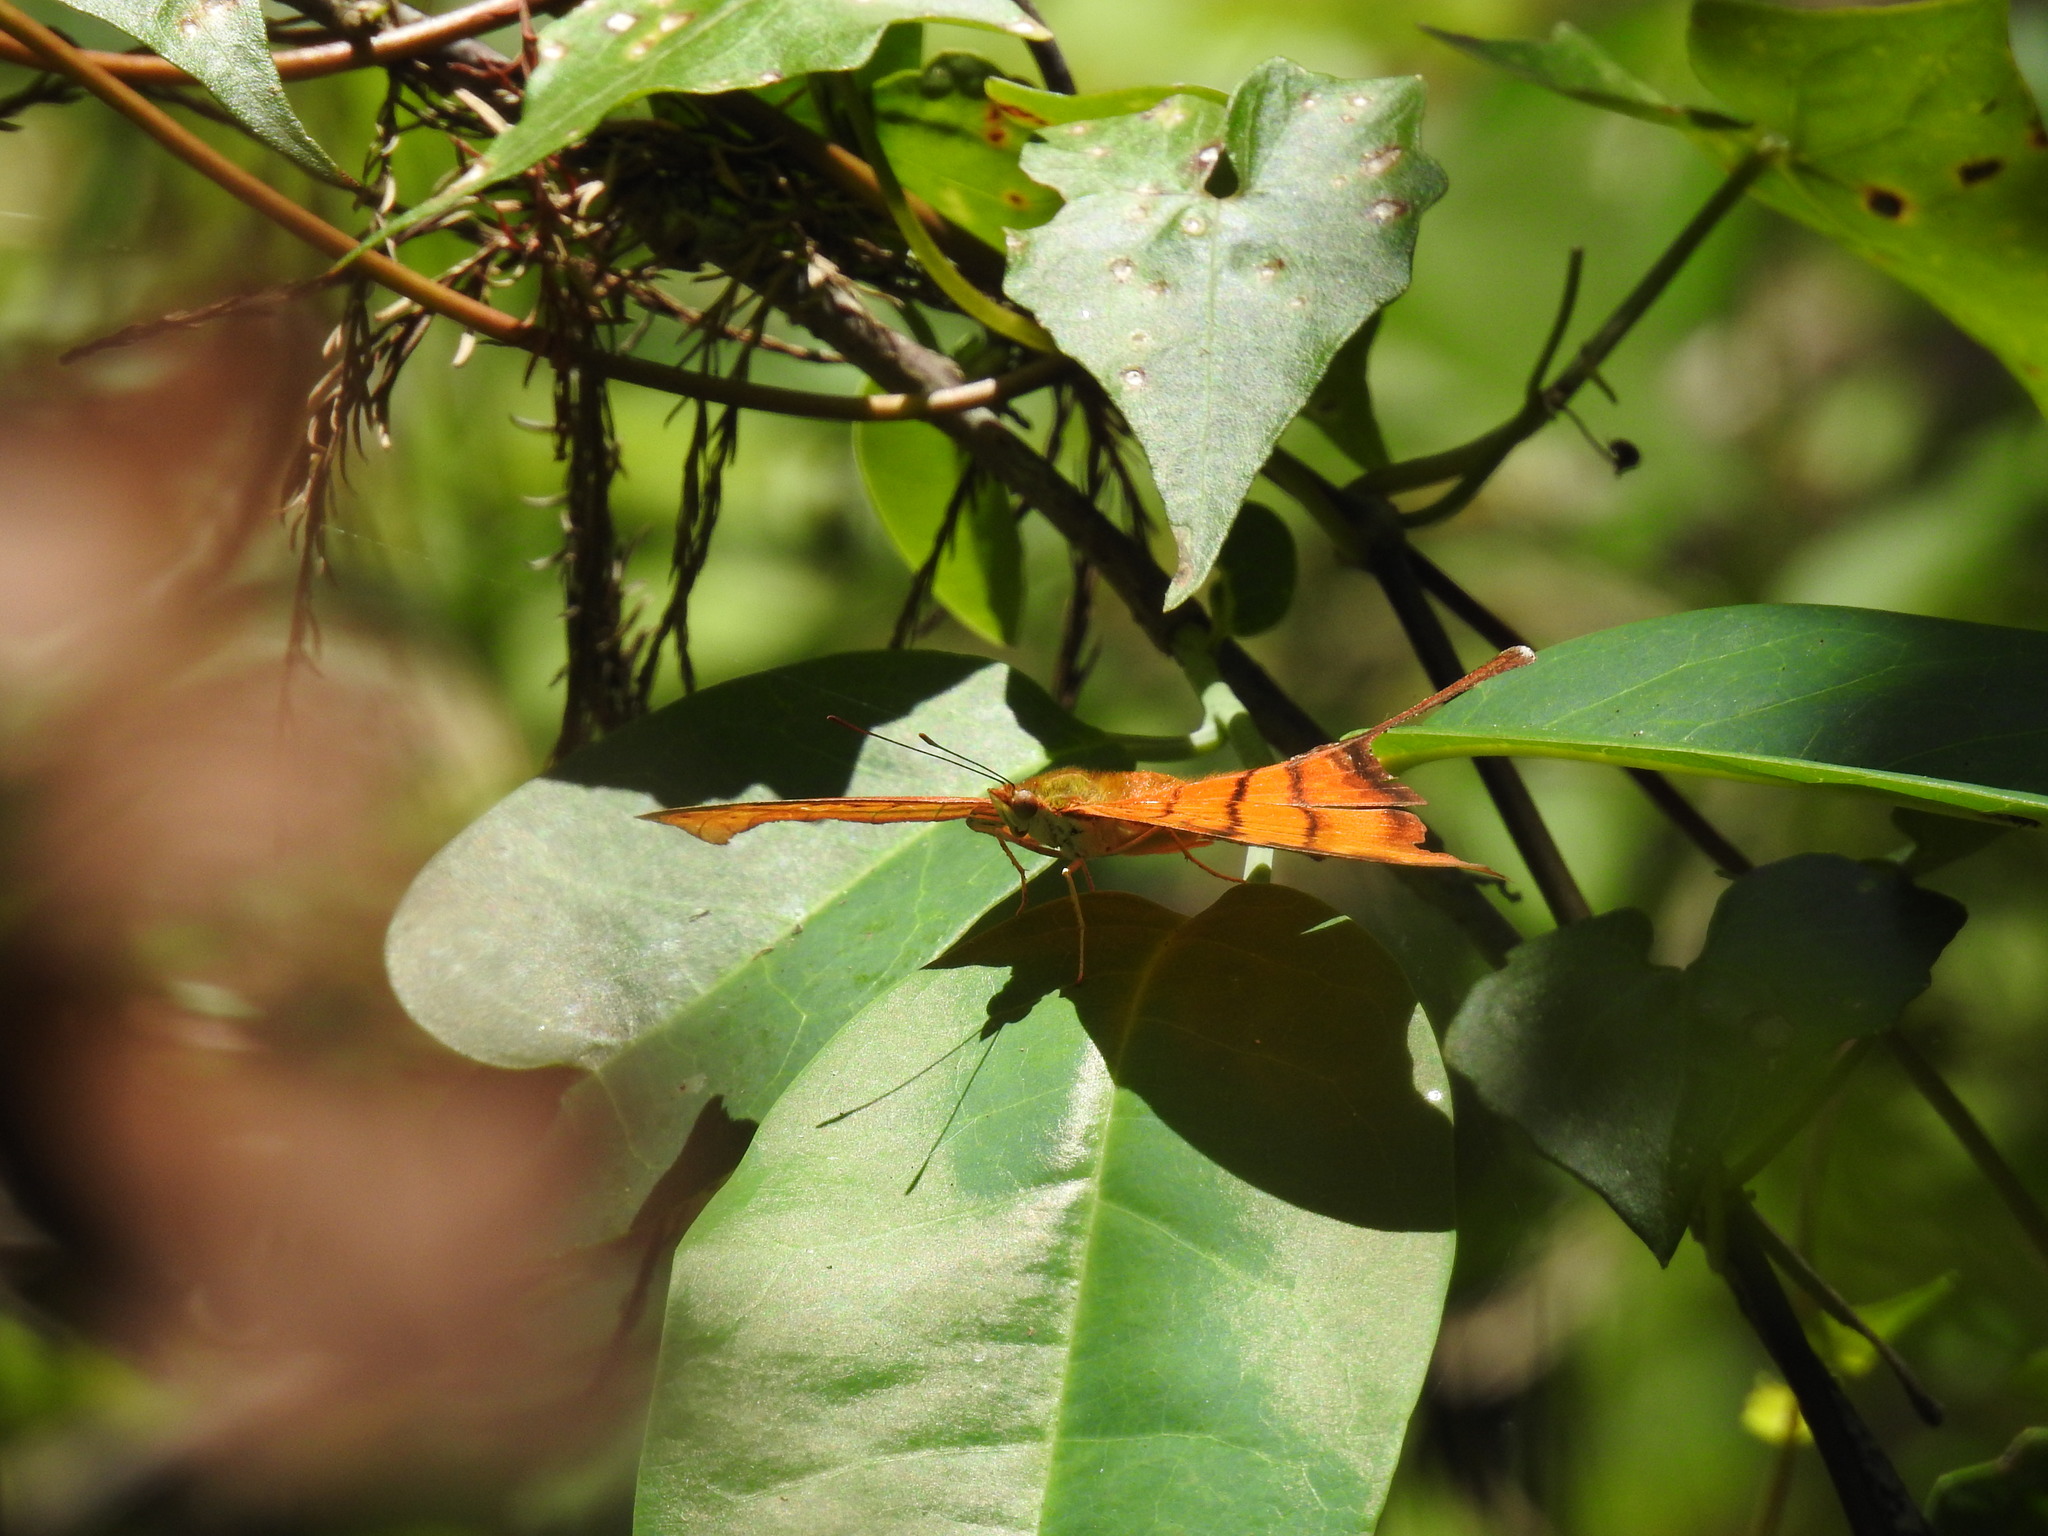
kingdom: Animalia
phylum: Arthropoda
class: Insecta
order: Lepidoptera
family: Nymphalidae
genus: Marpesia
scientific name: Marpesia petreus
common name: Red dagger wing
